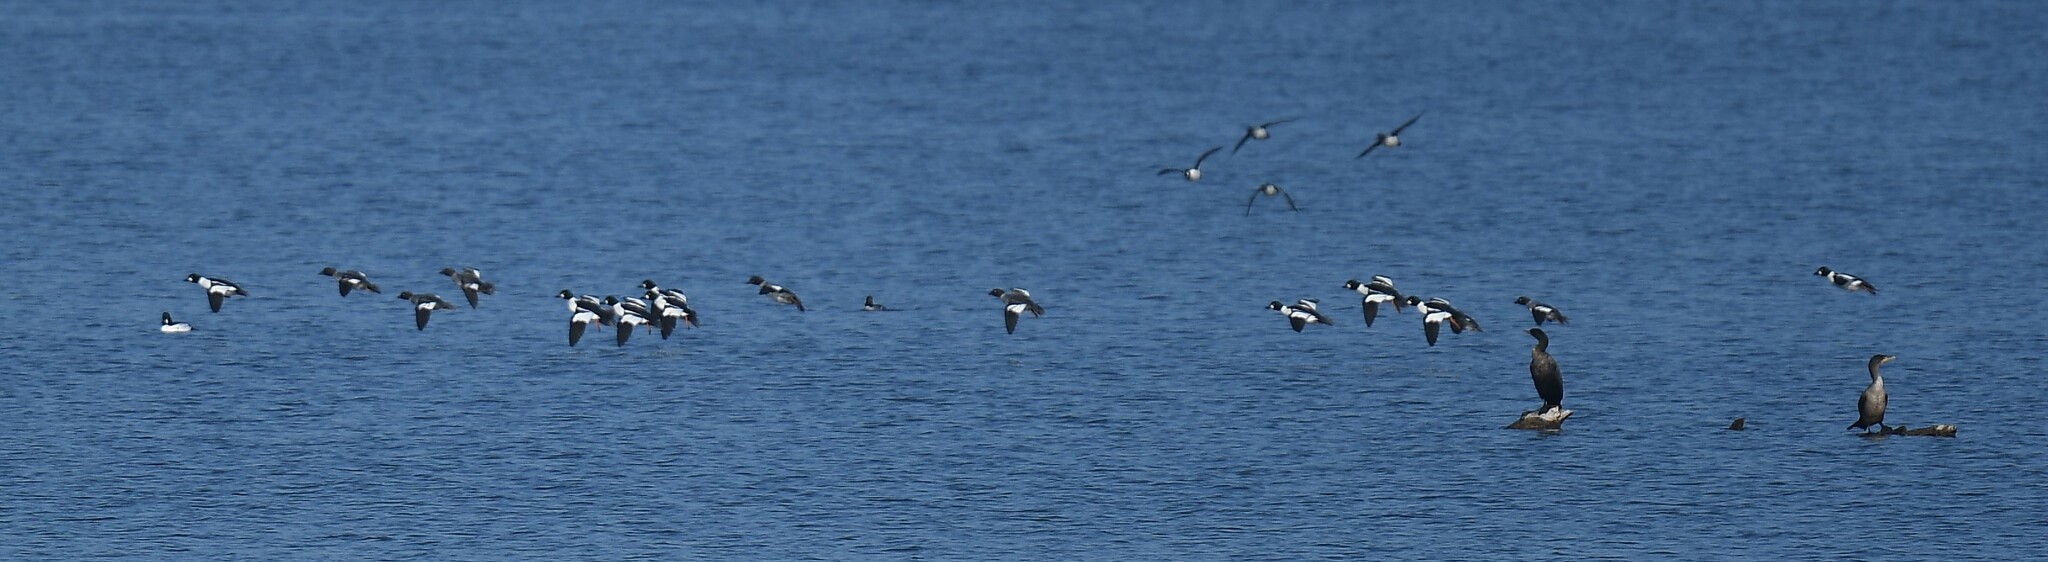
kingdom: Animalia
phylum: Chordata
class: Aves
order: Anseriformes
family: Anatidae
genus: Bucephala
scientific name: Bucephala clangula
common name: Common goldeneye
